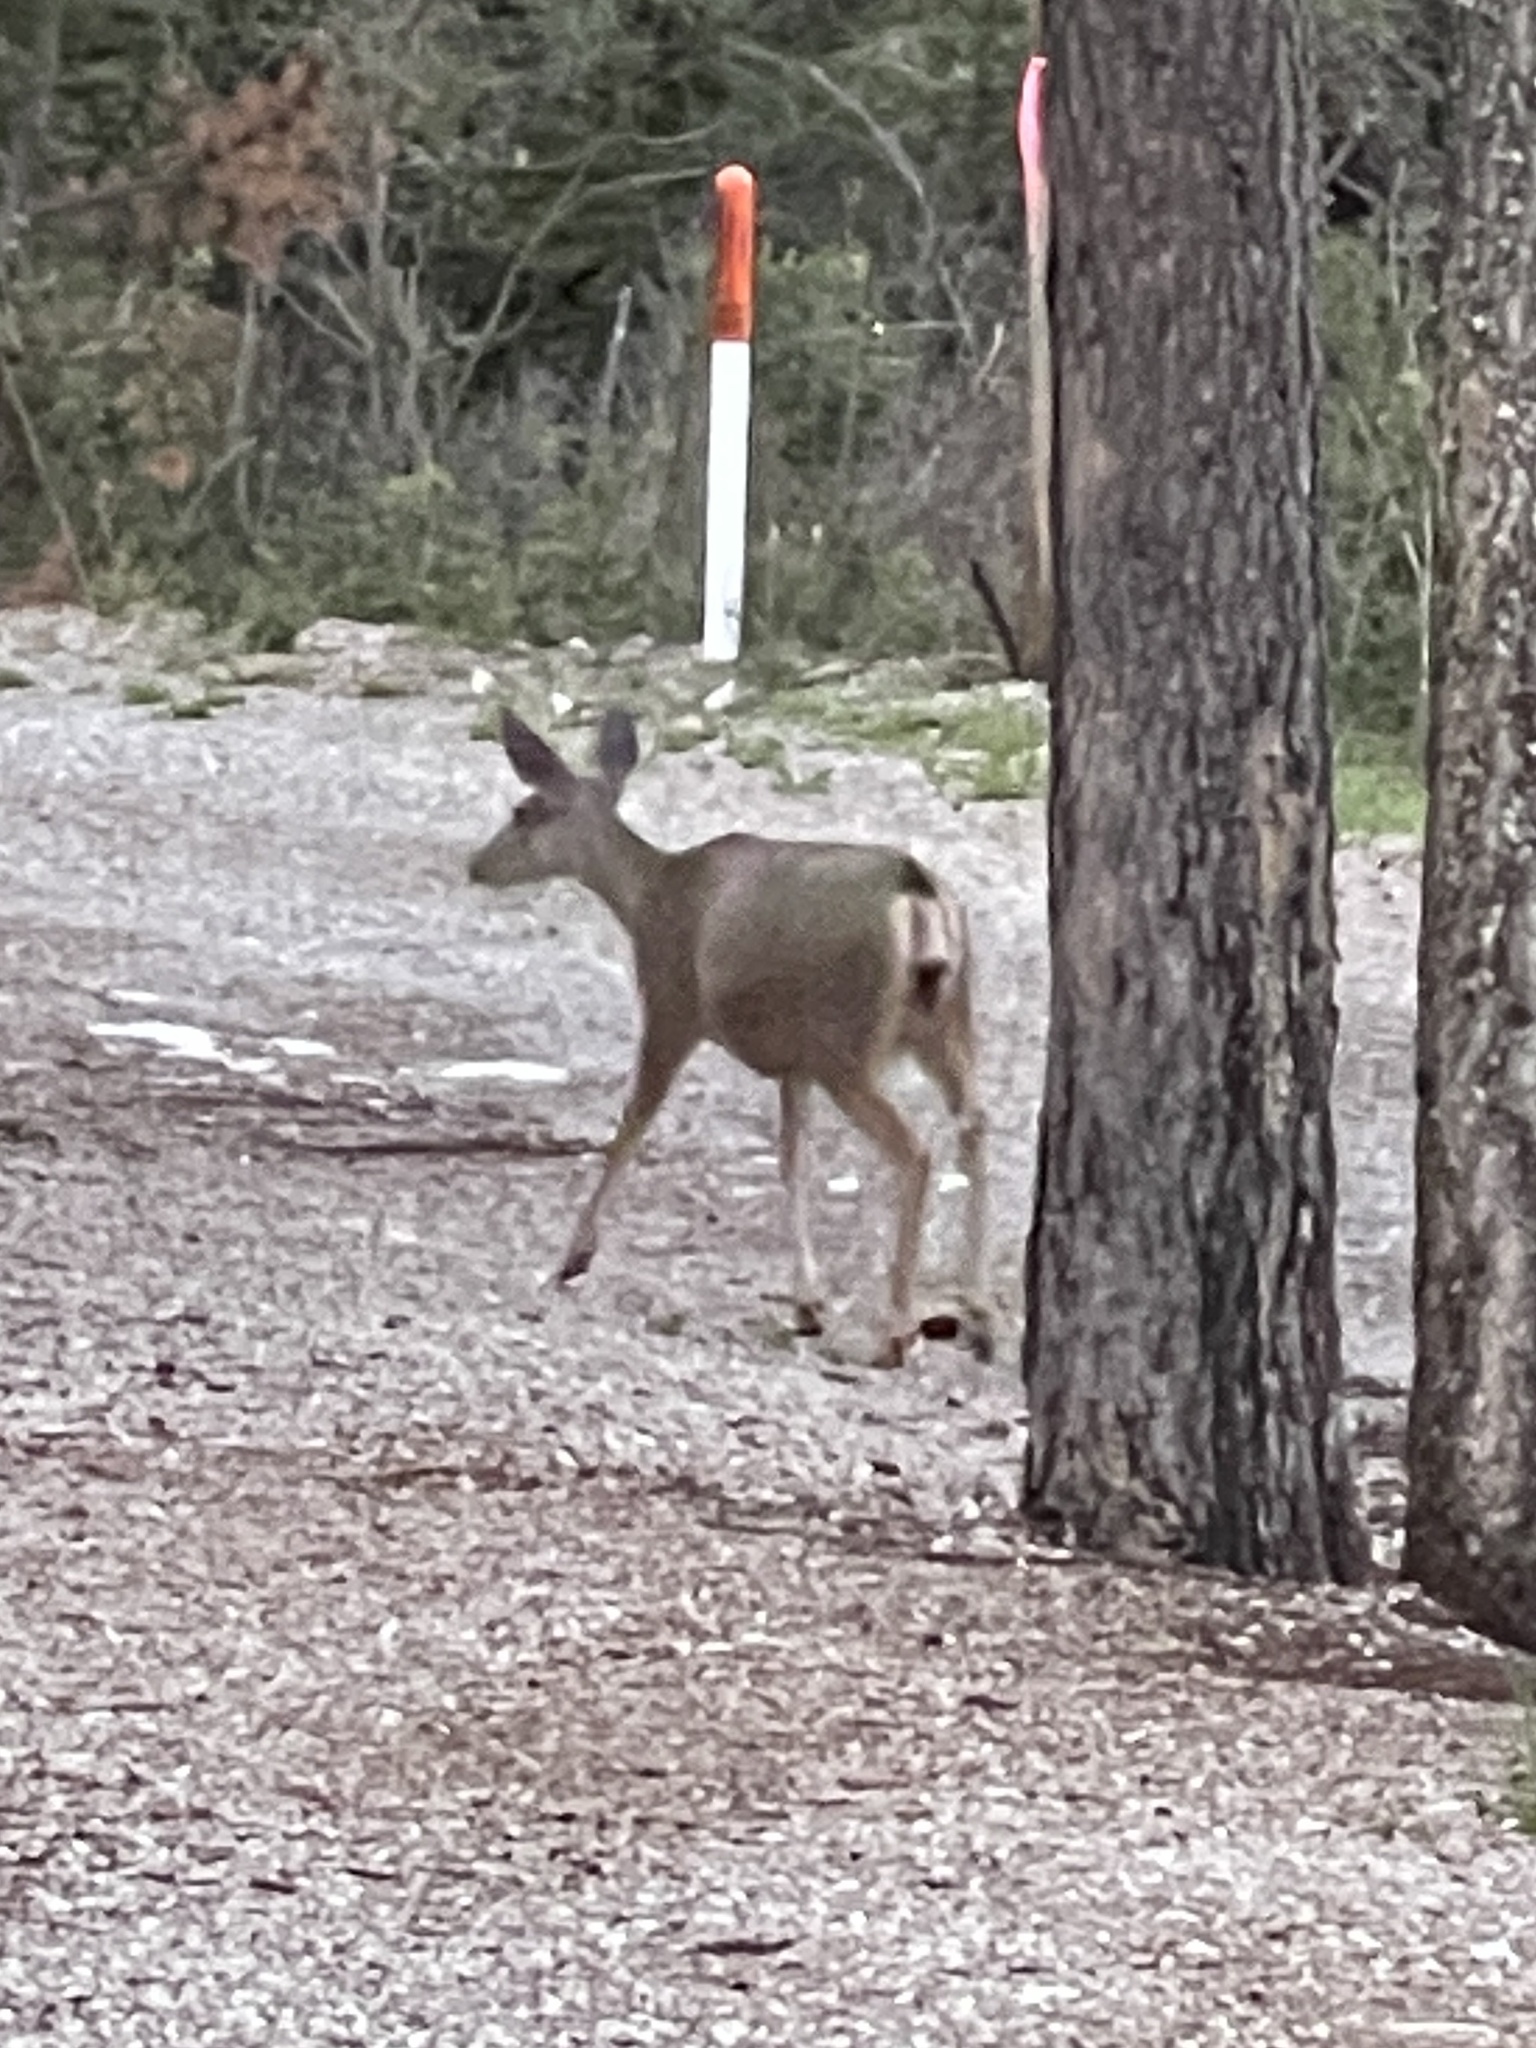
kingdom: Animalia
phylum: Chordata
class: Mammalia
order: Artiodactyla
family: Cervidae
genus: Odocoileus
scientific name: Odocoileus hemionus
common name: Mule deer
